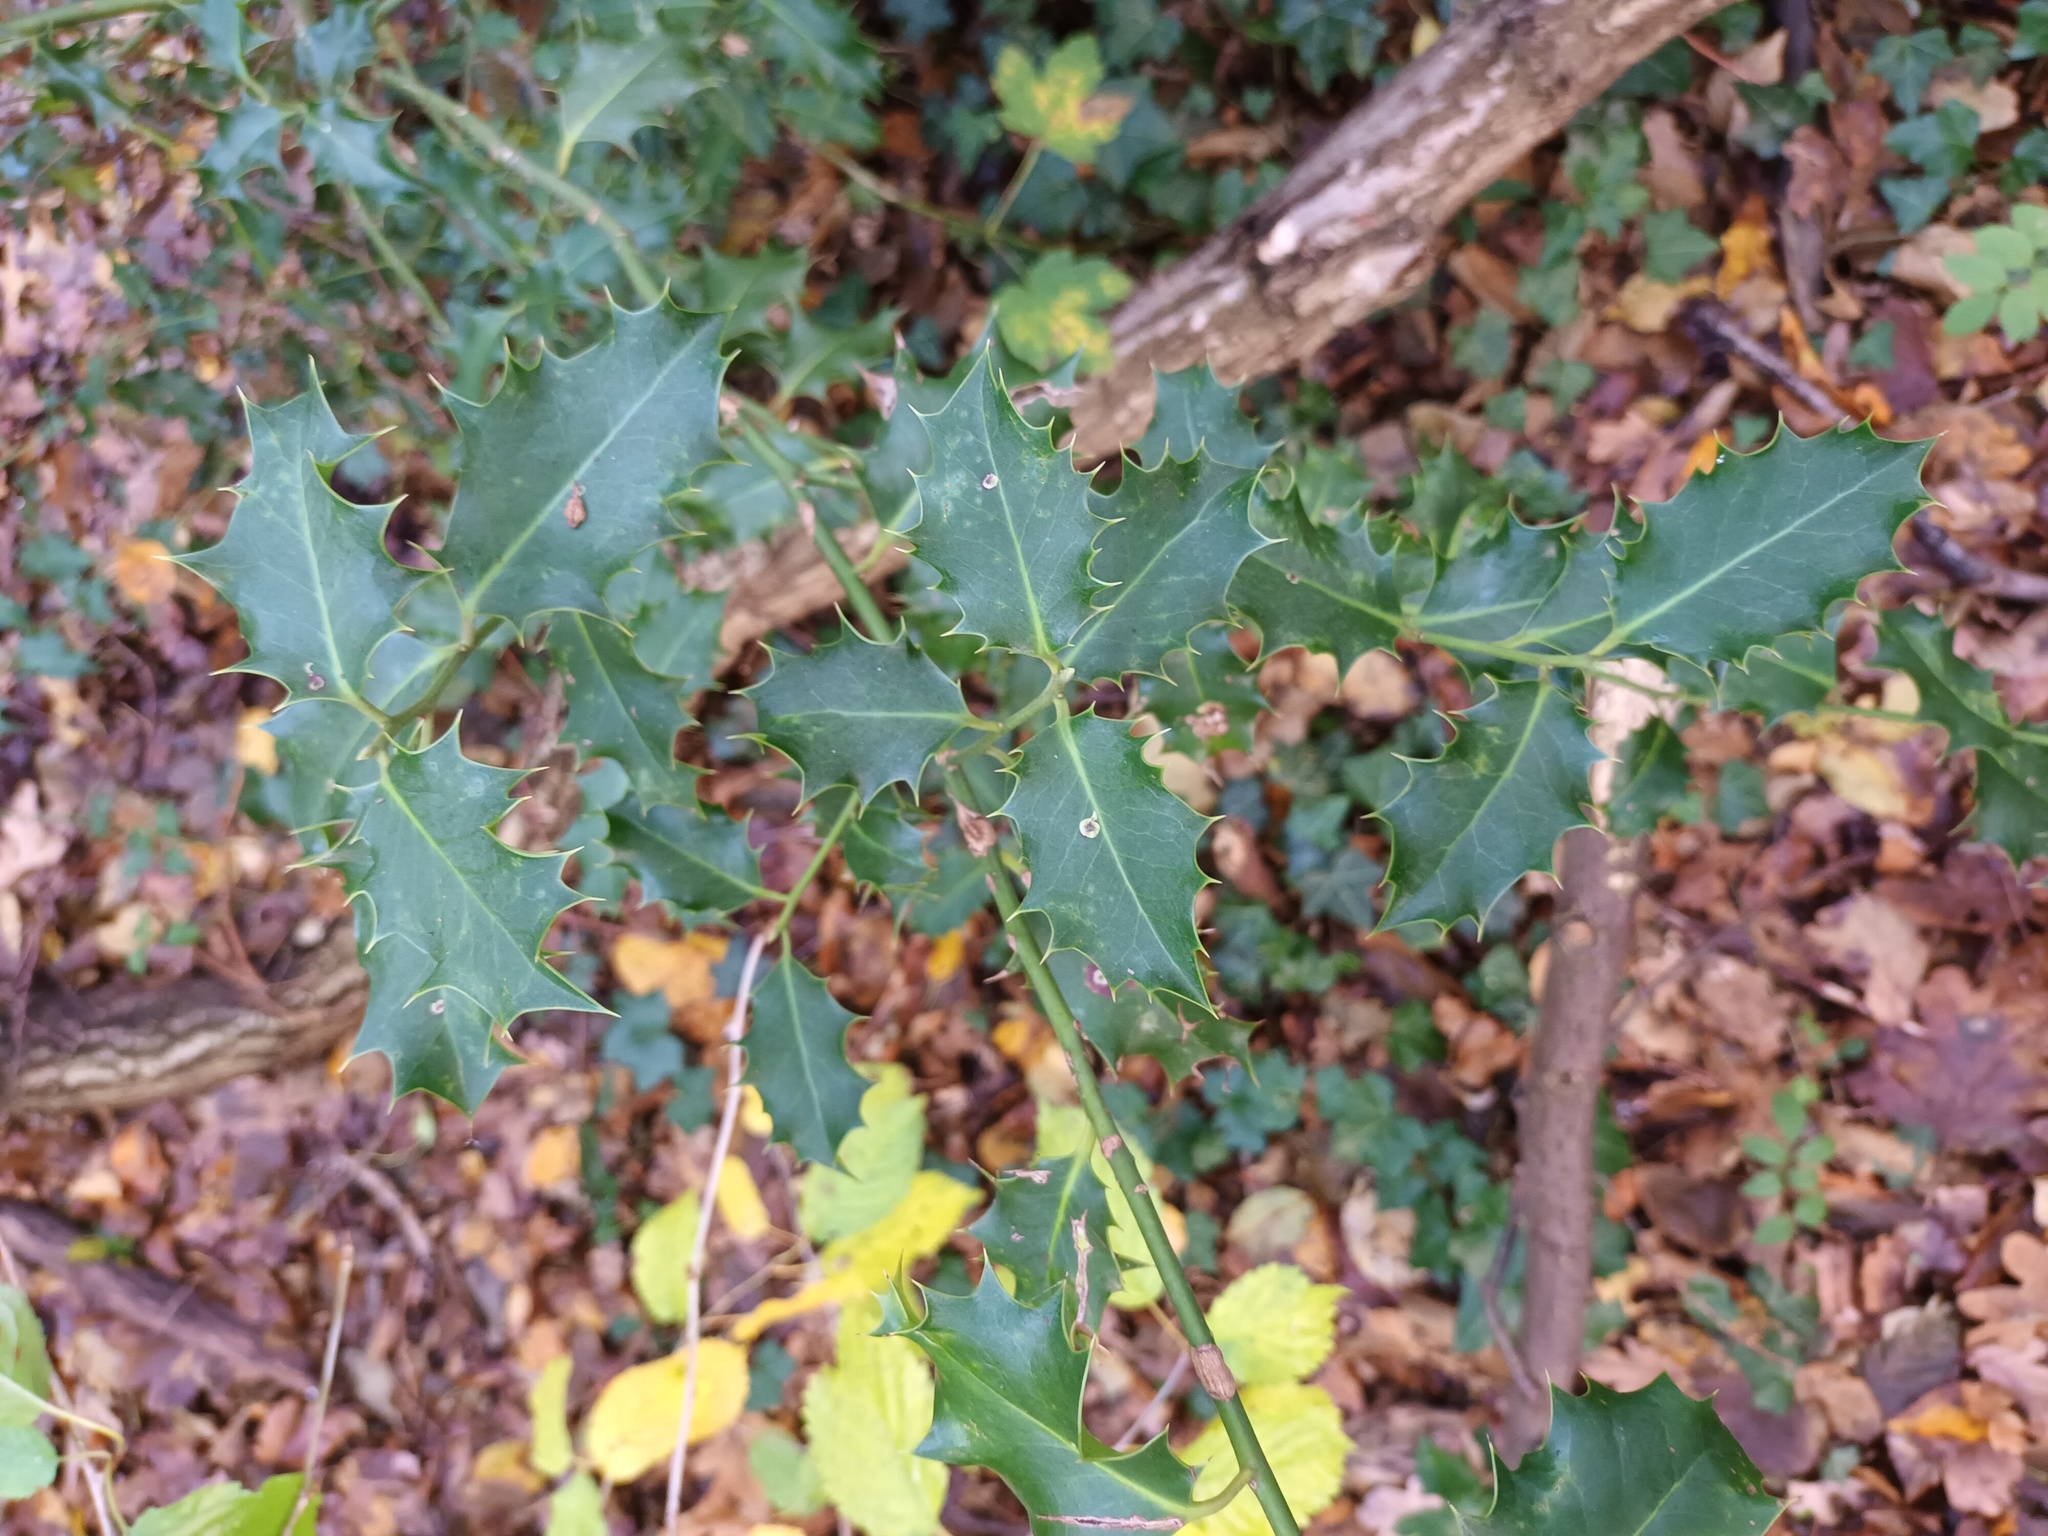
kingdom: Plantae
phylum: Tracheophyta
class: Magnoliopsida
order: Aquifoliales
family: Aquifoliaceae
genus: Ilex
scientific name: Ilex aquifolium
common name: English holly
